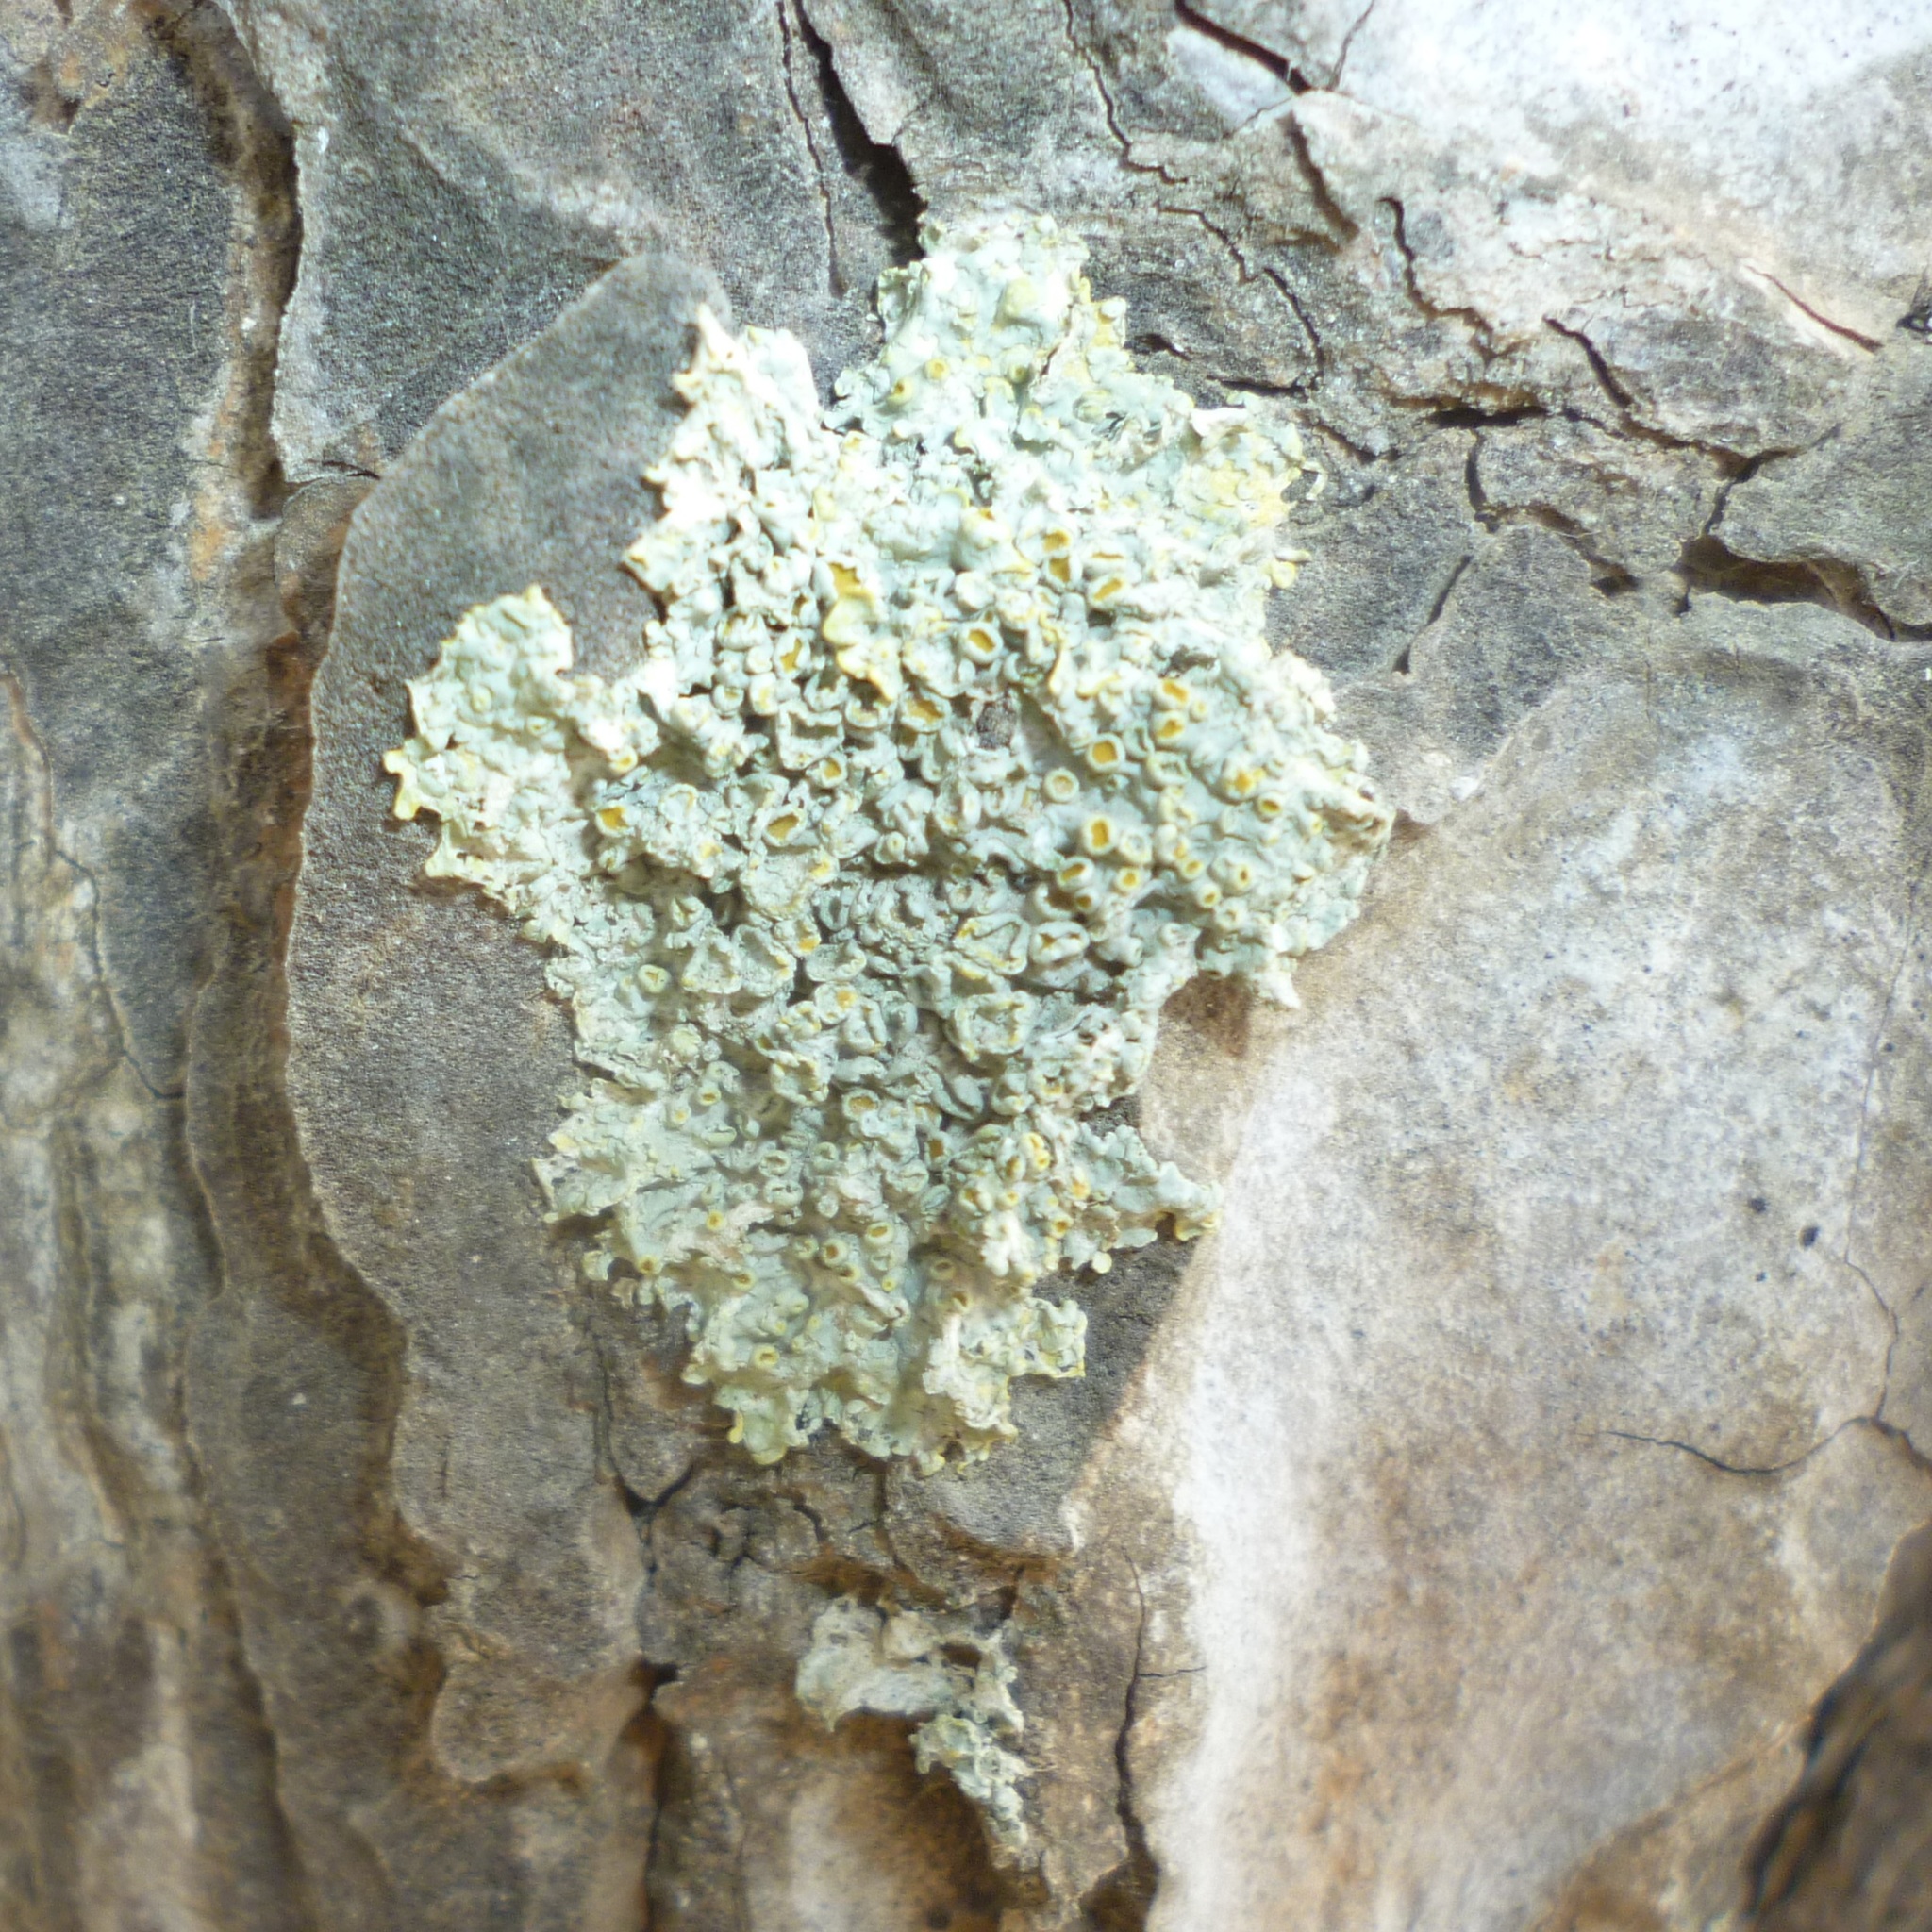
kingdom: Fungi
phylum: Ascomycota
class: Lecanoromycetes
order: Teloschistales
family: Teloschistaceae
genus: Xanthoria
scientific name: Xanthoria parietina
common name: Common orange lichen
